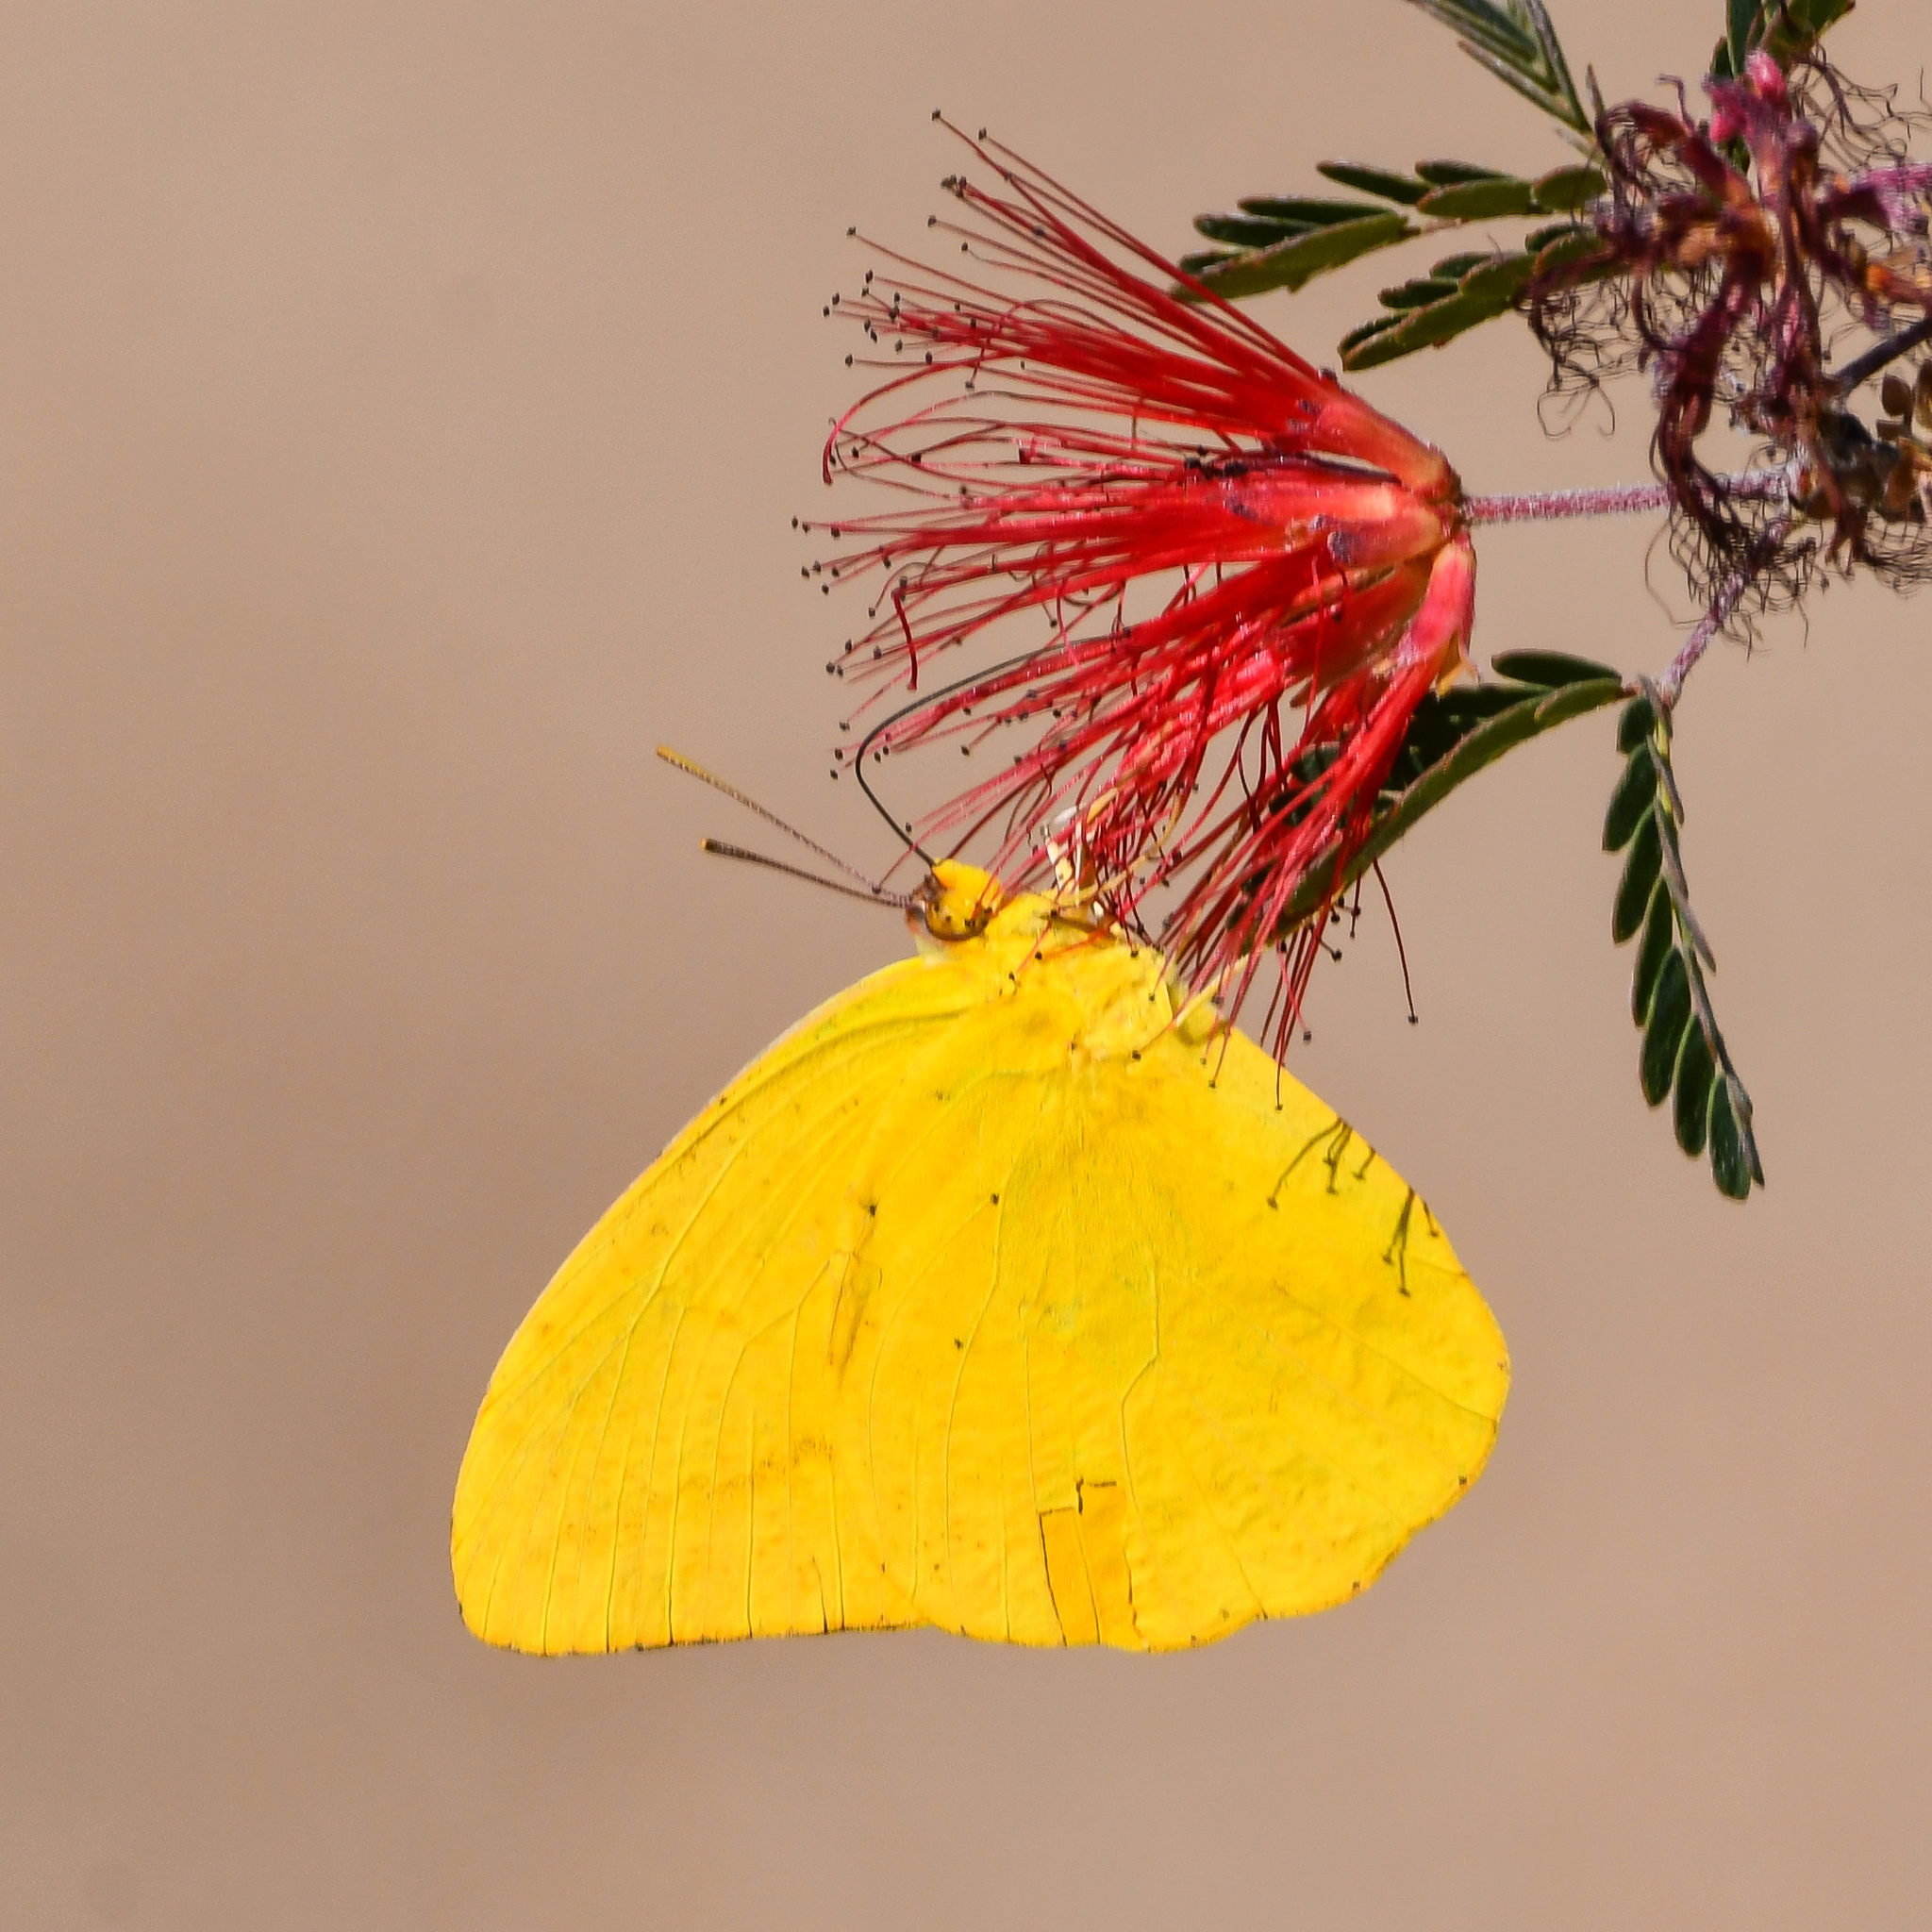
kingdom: Animalia
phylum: Arthropoda
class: Insecta
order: Lepidoptera
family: Pieridae
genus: Phoebis
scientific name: Phoebis agarithe
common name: Large orange sulphur
